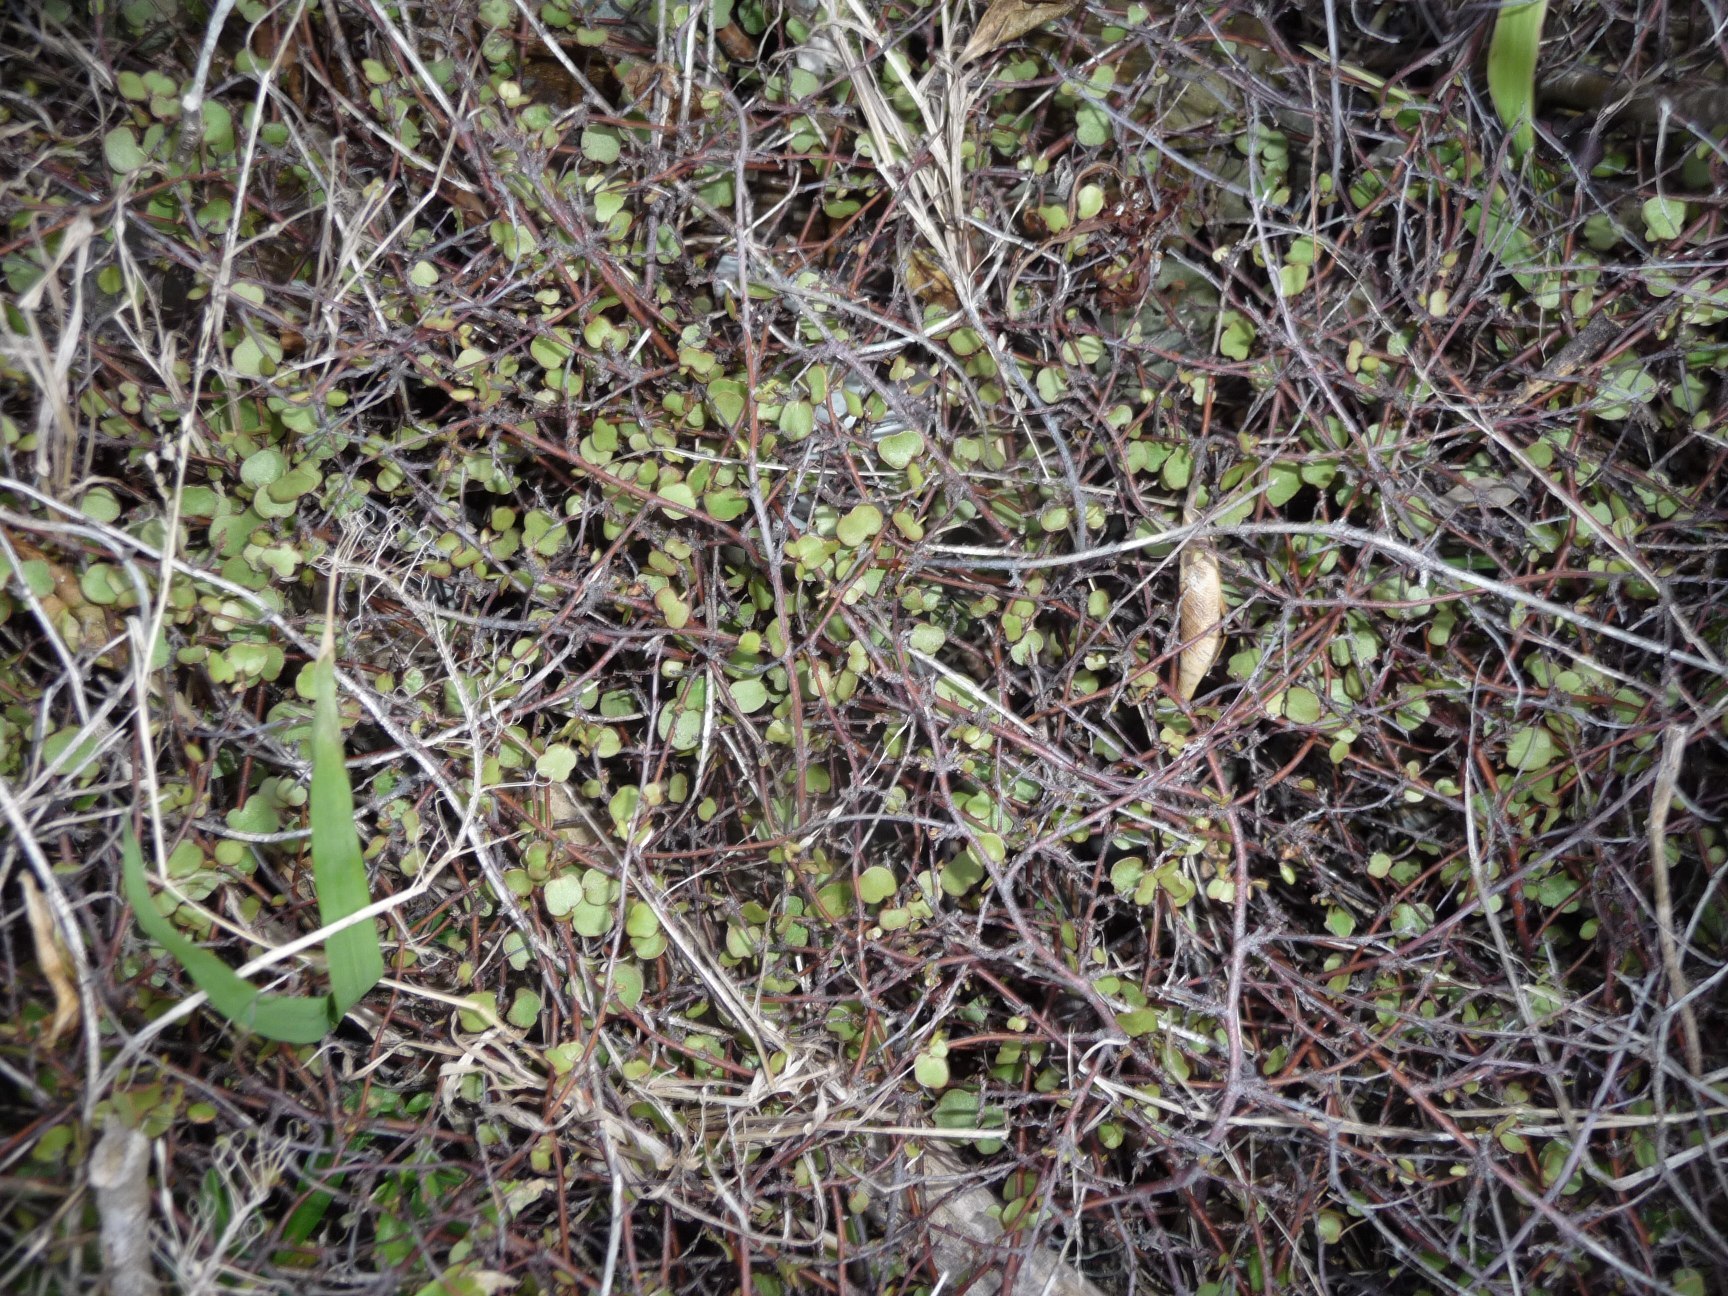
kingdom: Plantae
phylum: Tracheophyta
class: Magnoliopsida
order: Caryophyllales
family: Polygonaceae
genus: Muehlenbeckia
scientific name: Muehlenbeckia complexa
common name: Wireplant
